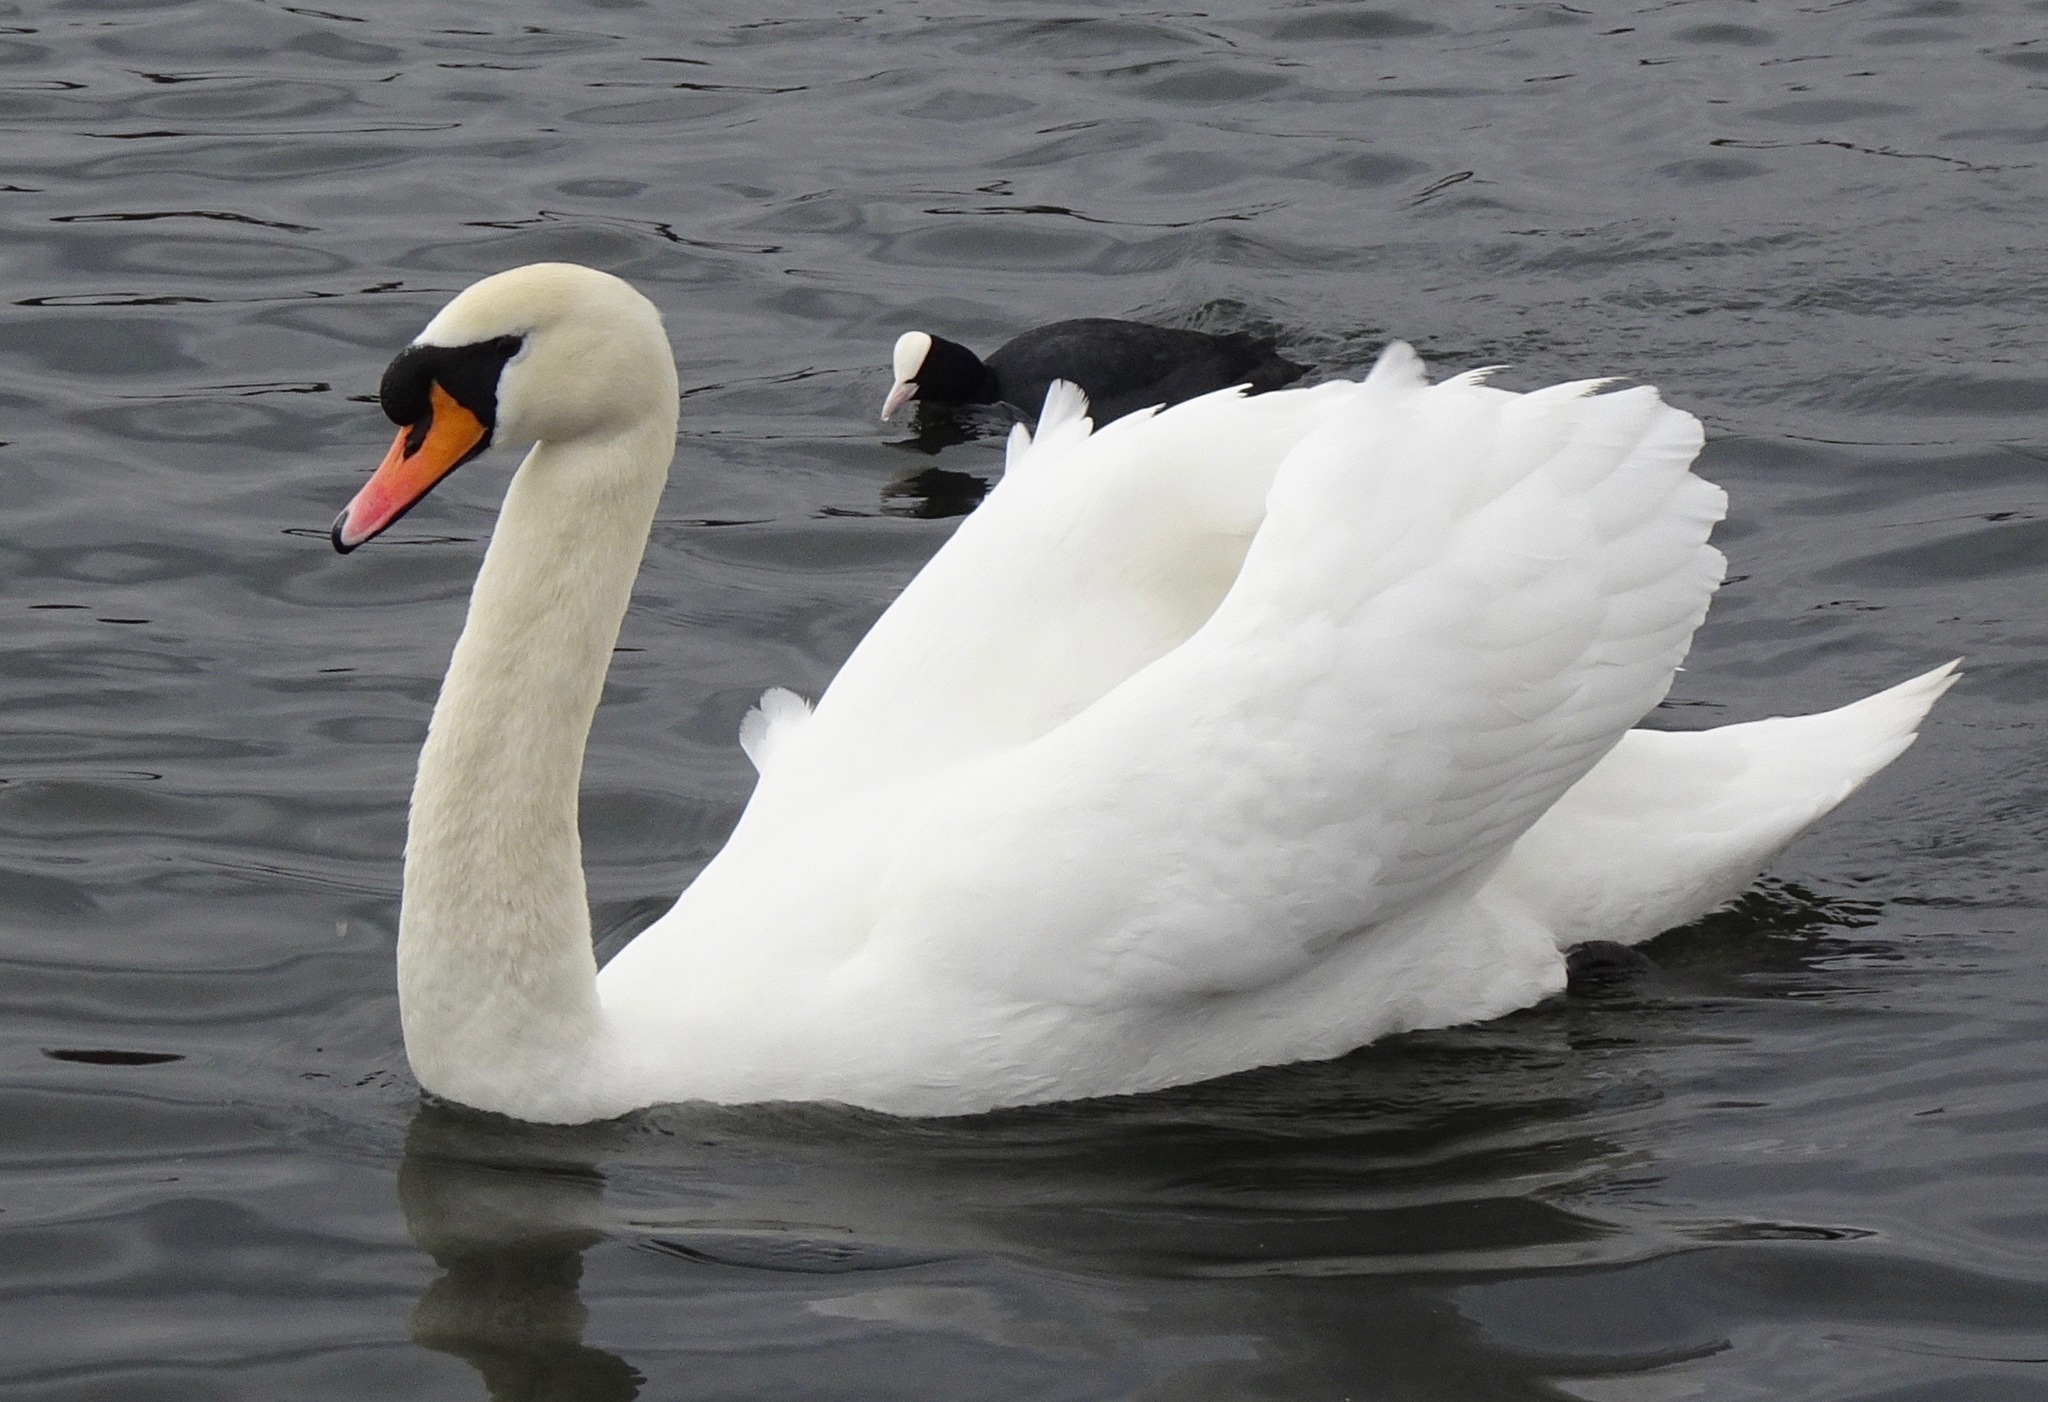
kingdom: Animalia
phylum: Chordata
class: Aves
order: Anseriformes
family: Anatidae
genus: Cygnus
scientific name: Cygnus olor
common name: Mute swan
